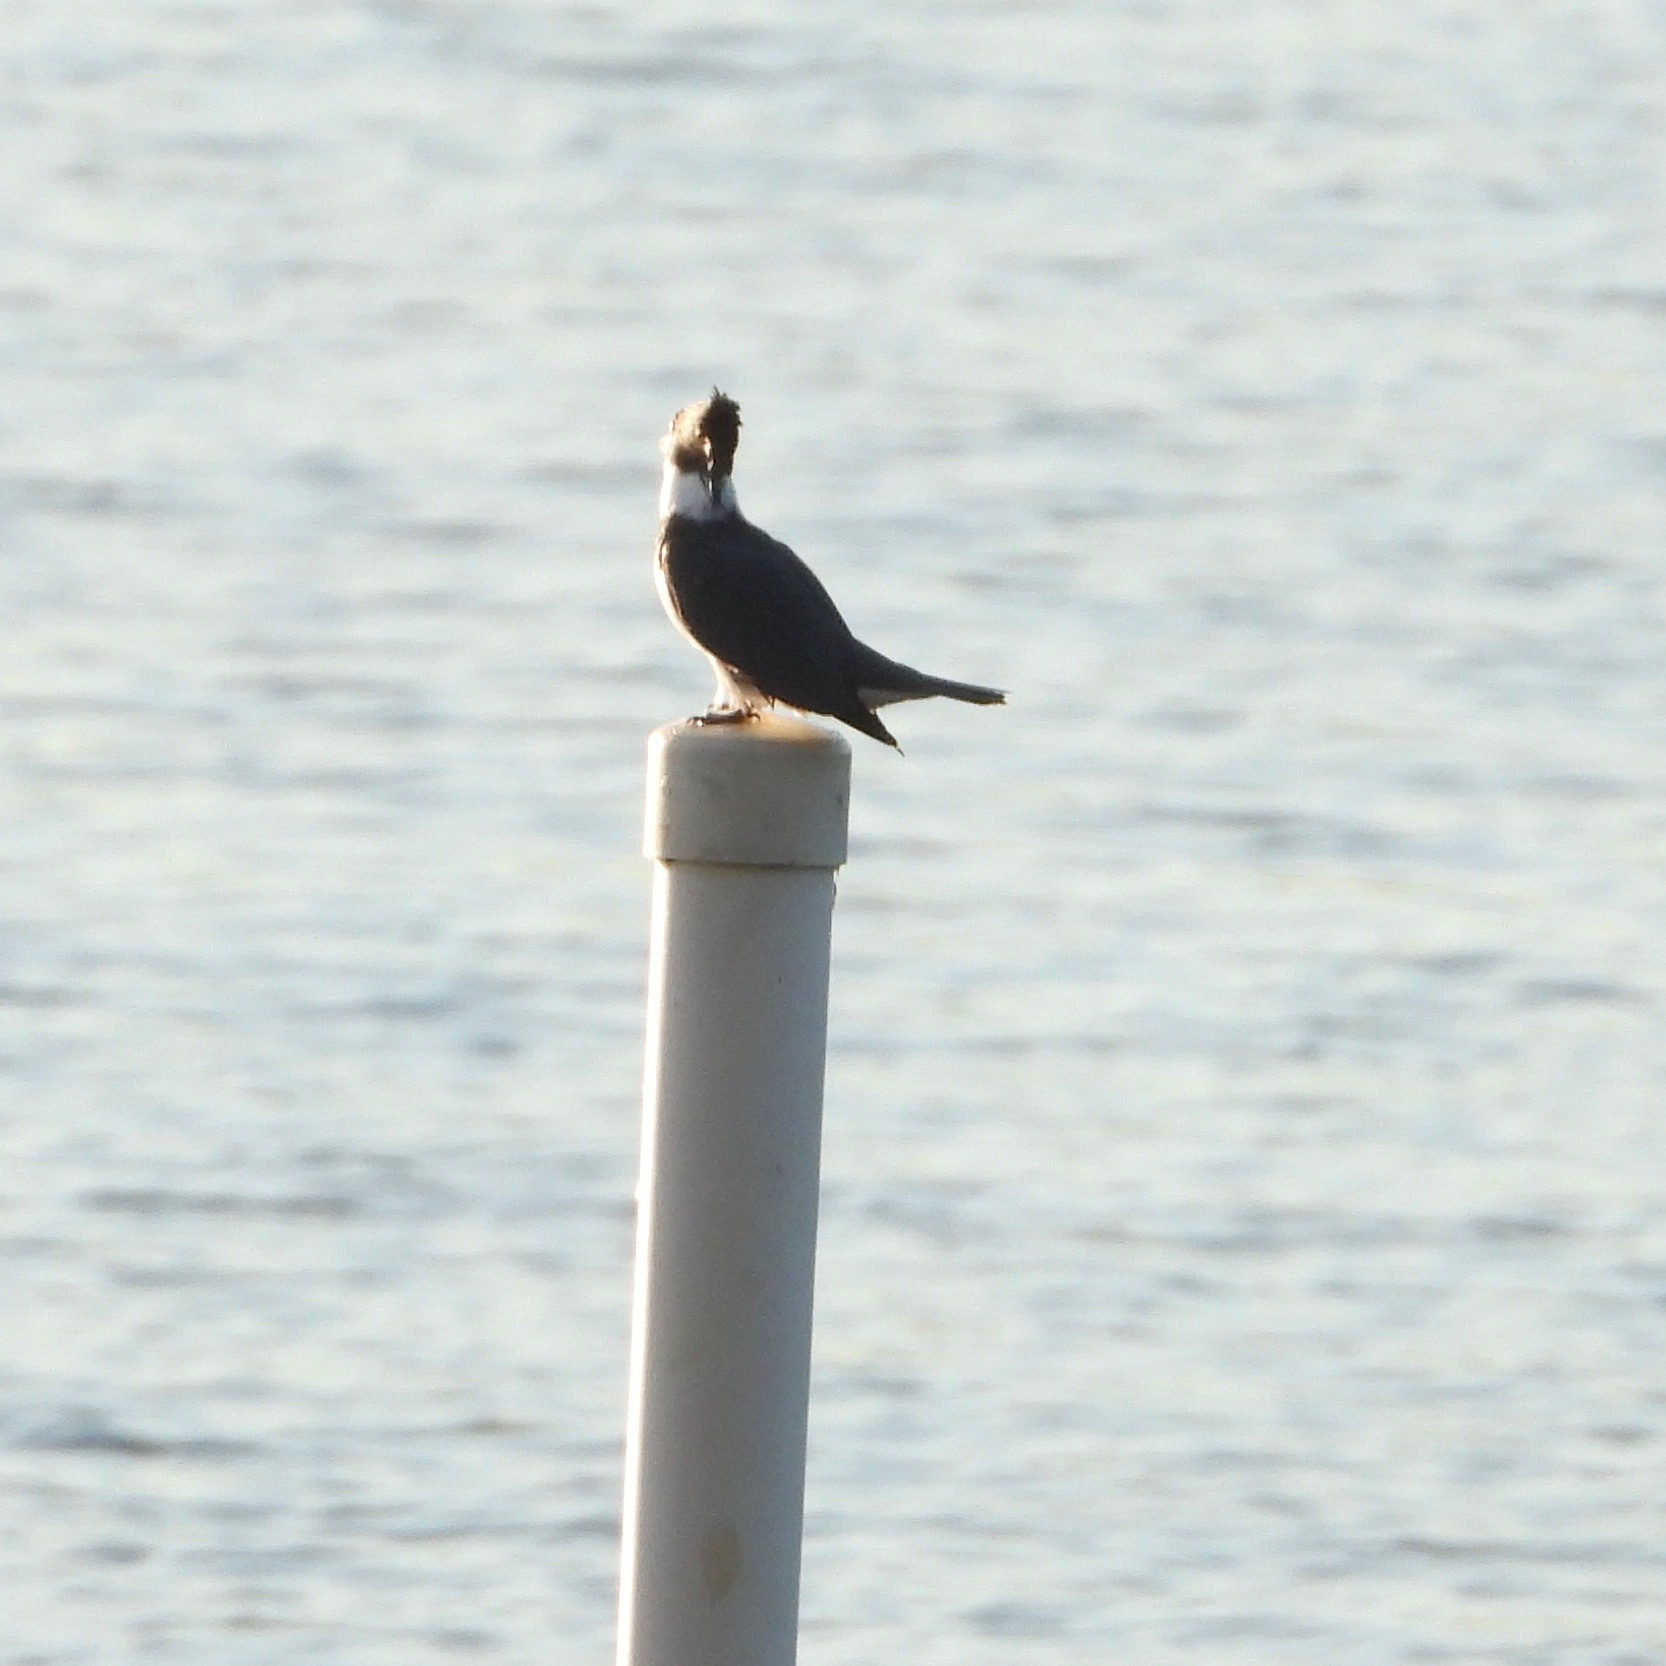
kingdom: Animalia
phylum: Chordata
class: Aves
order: Coraciiformes
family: Alcedinidae
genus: Megaceryle
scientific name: Megaceryle alcyon
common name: Belted kingfisher
